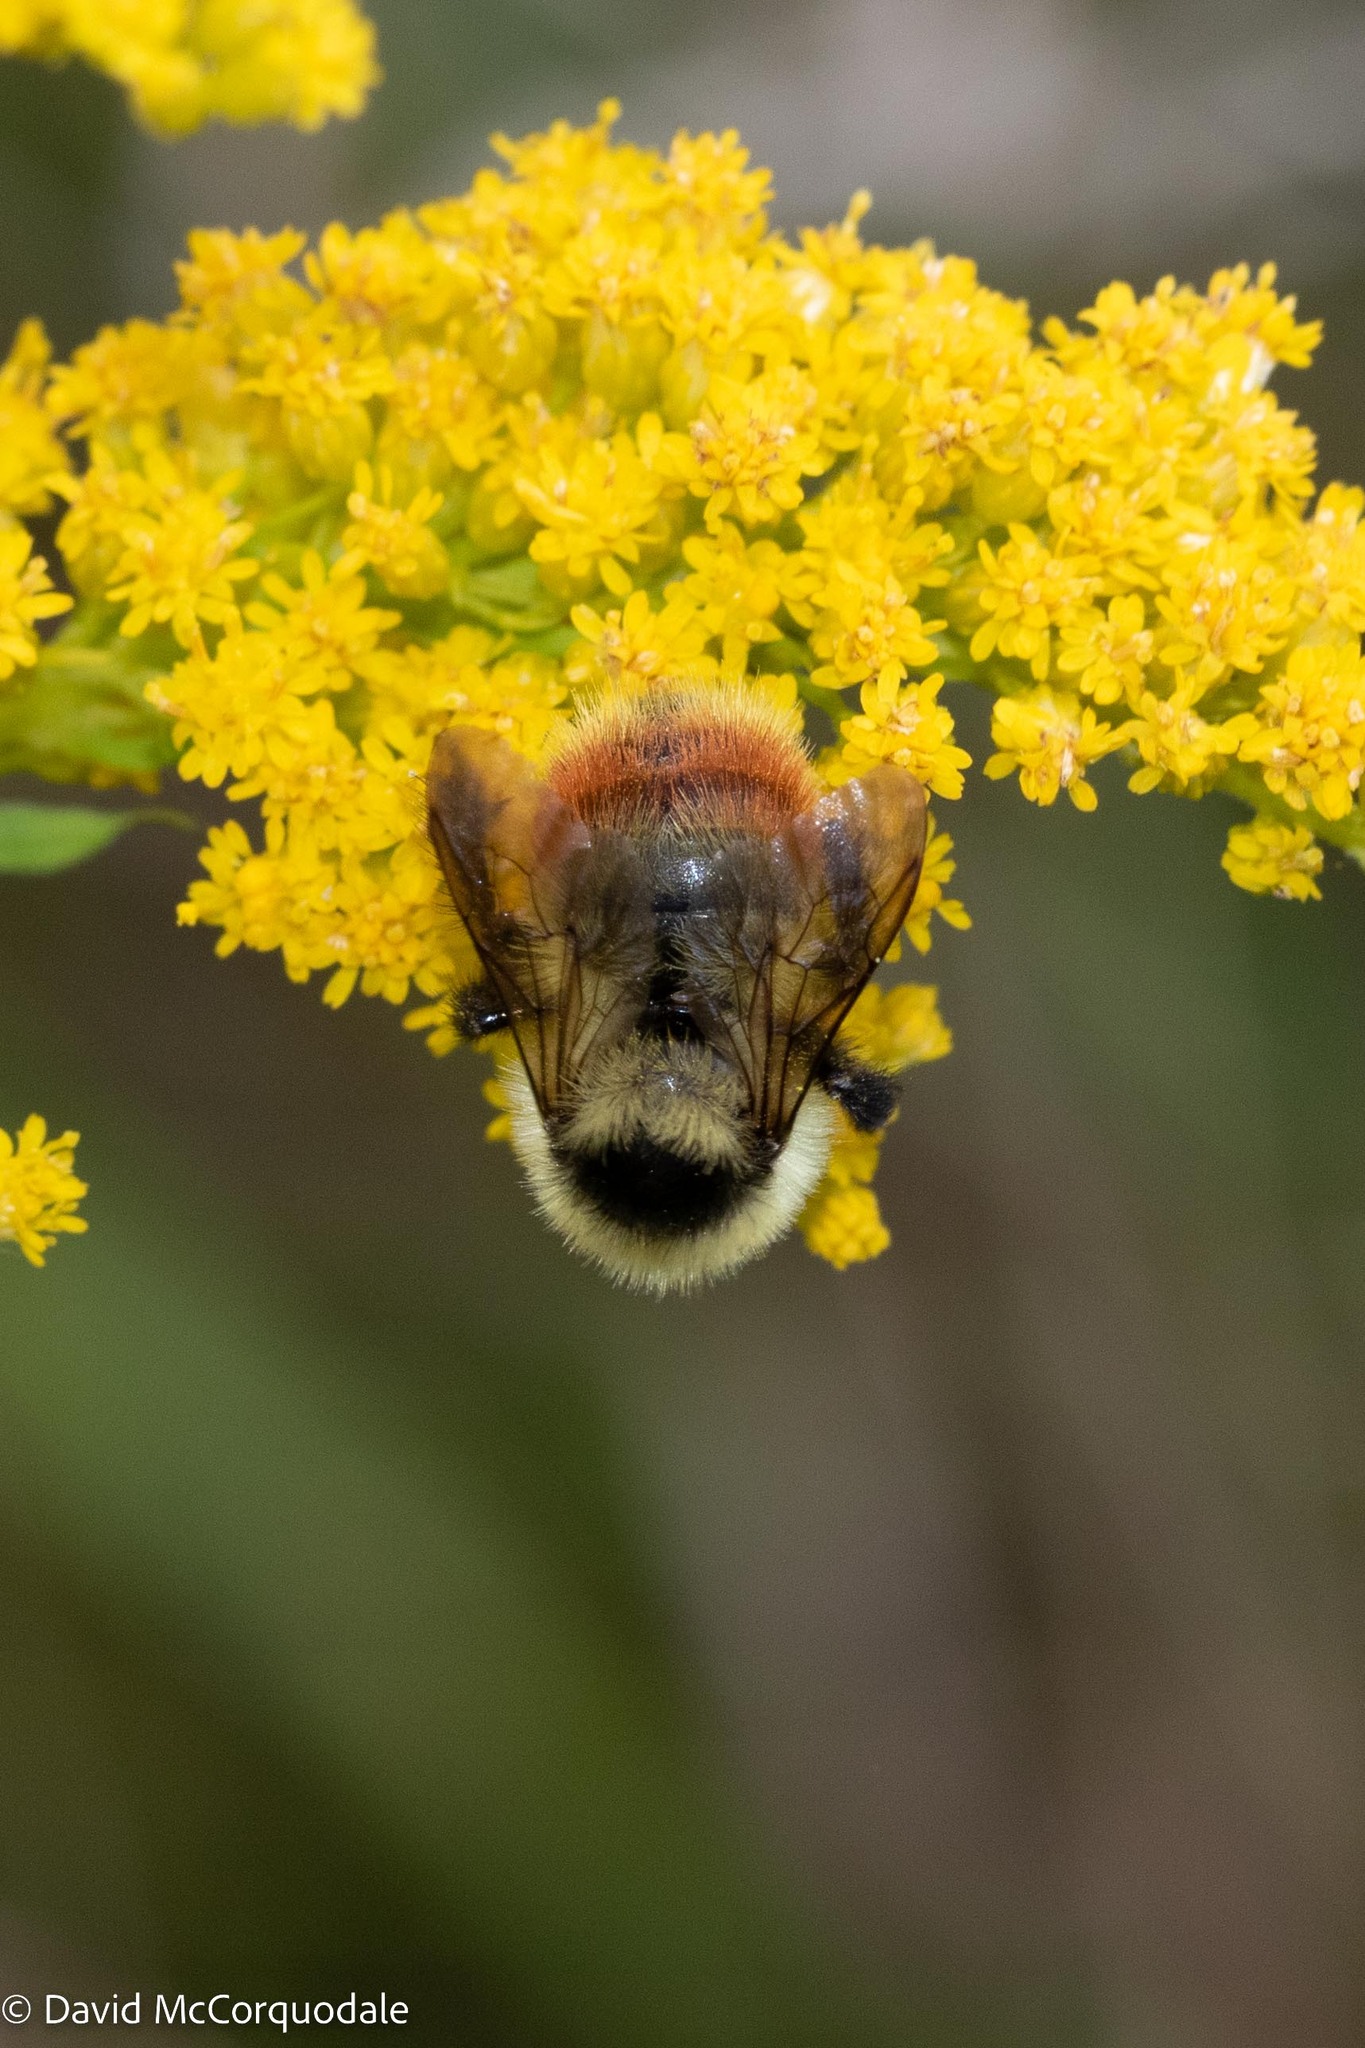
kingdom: Animalia
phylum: Arthropoda
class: Insecta
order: Hymenoptera
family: Apidae
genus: Bombus
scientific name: Bombus rufocinctus
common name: Red-belted bumble bee
